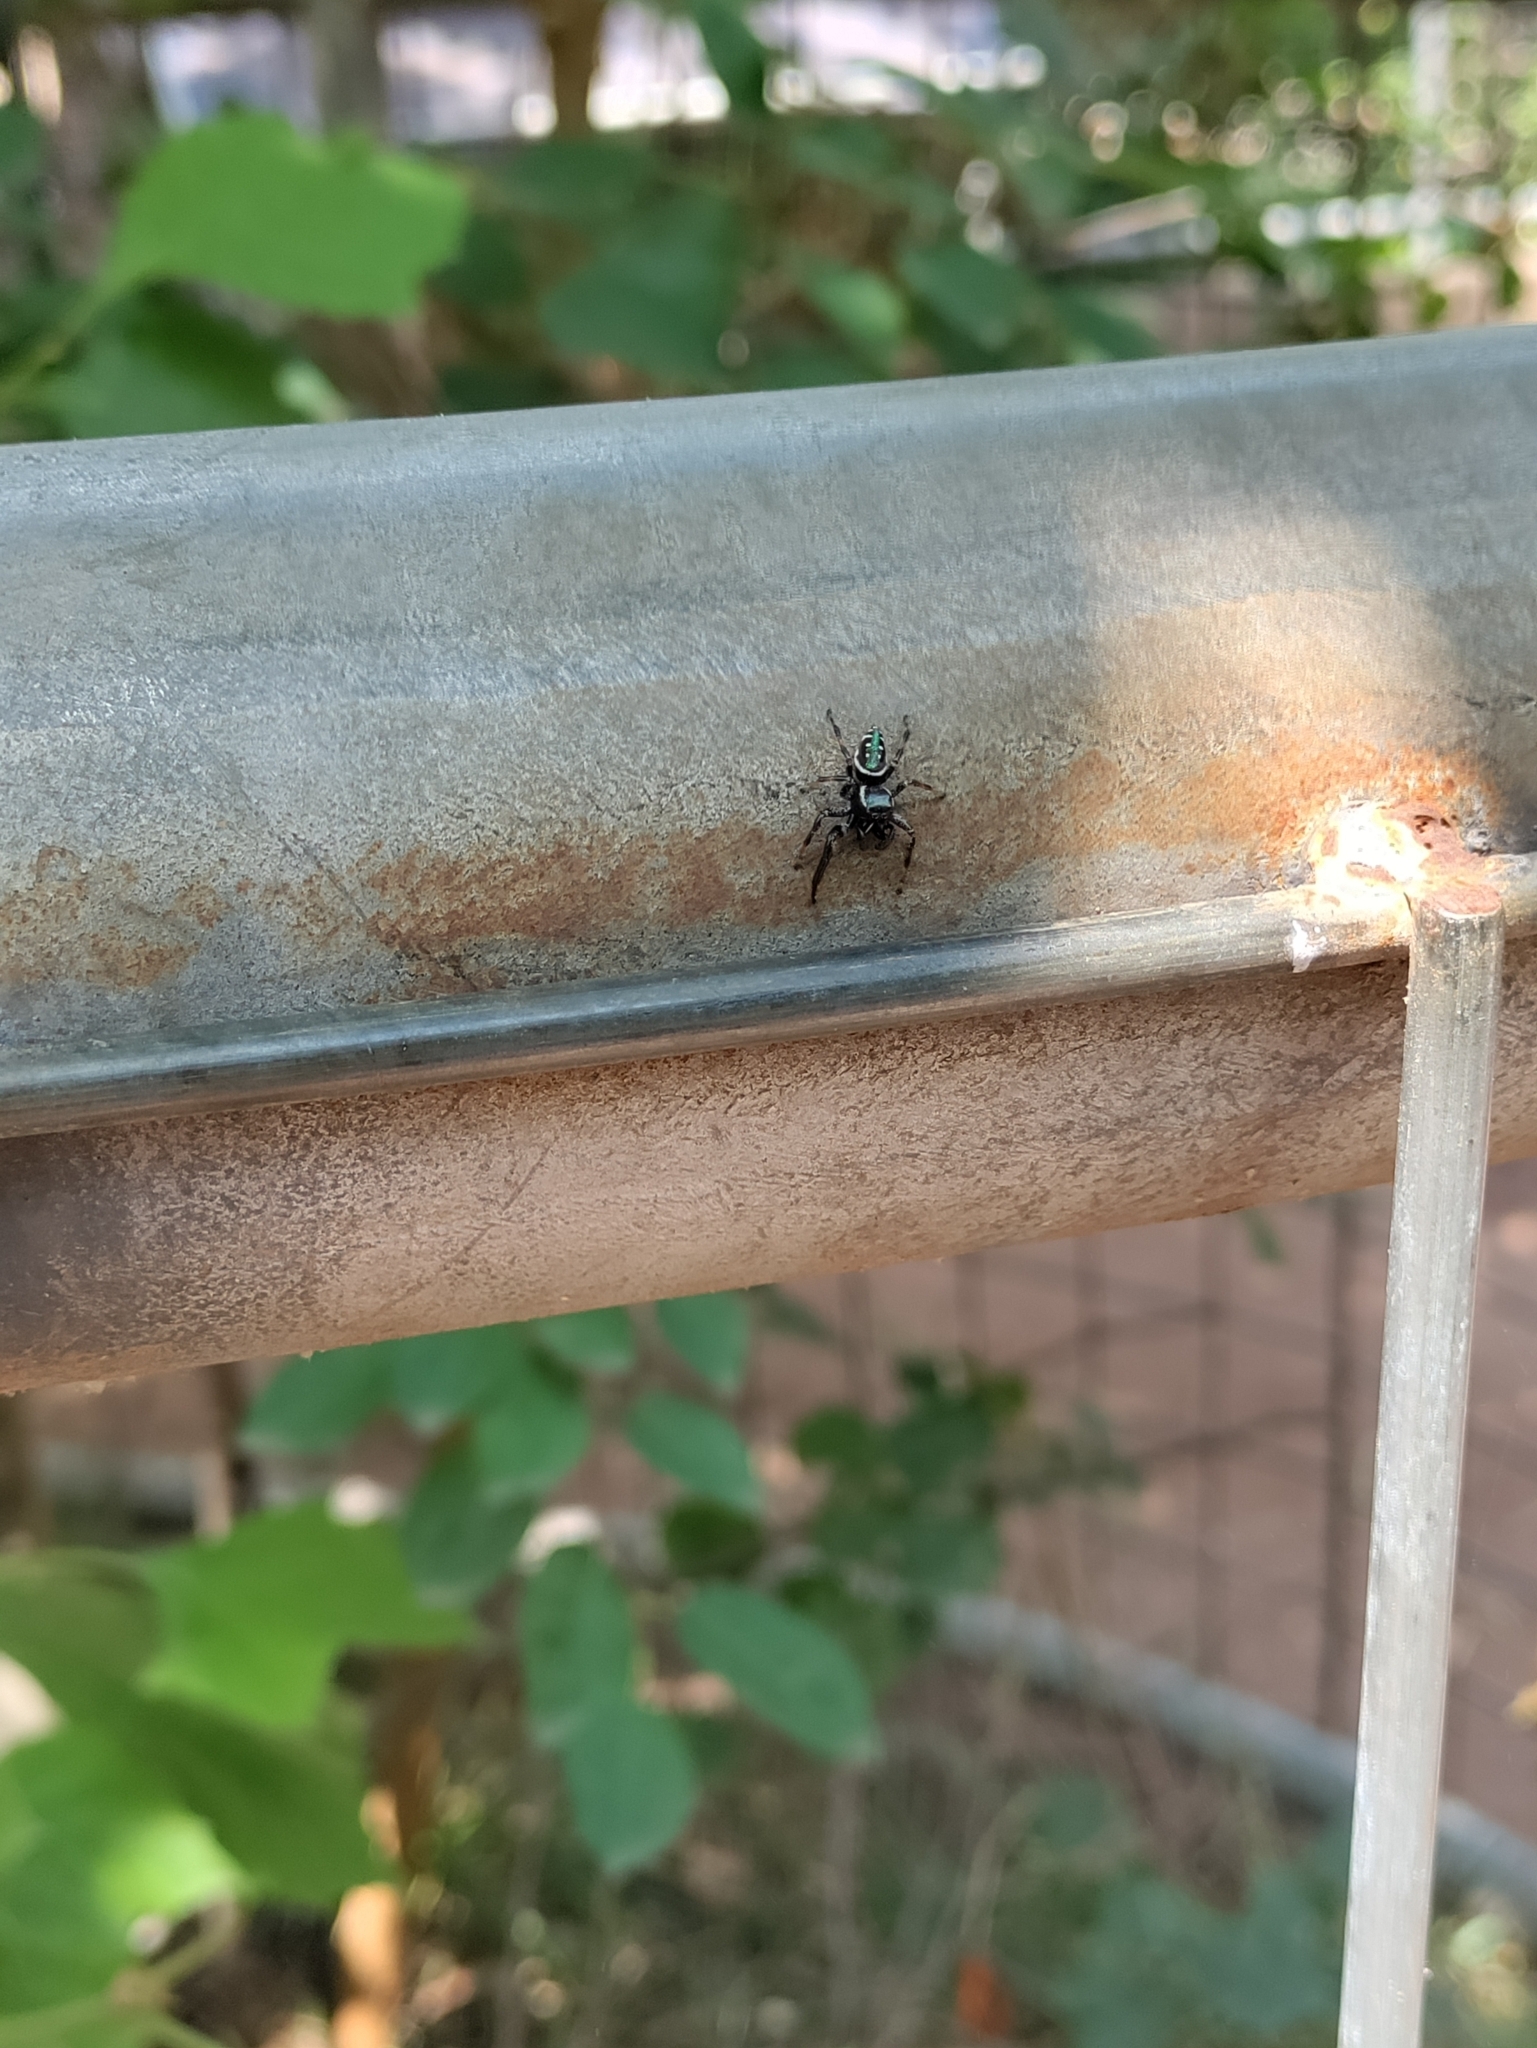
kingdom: Animalia
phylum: Arthropoda
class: Arachnida
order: Araneae
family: Salticidae
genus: Paraphidippus
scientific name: Paraphidippus aurantius
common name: Jumping spiders
